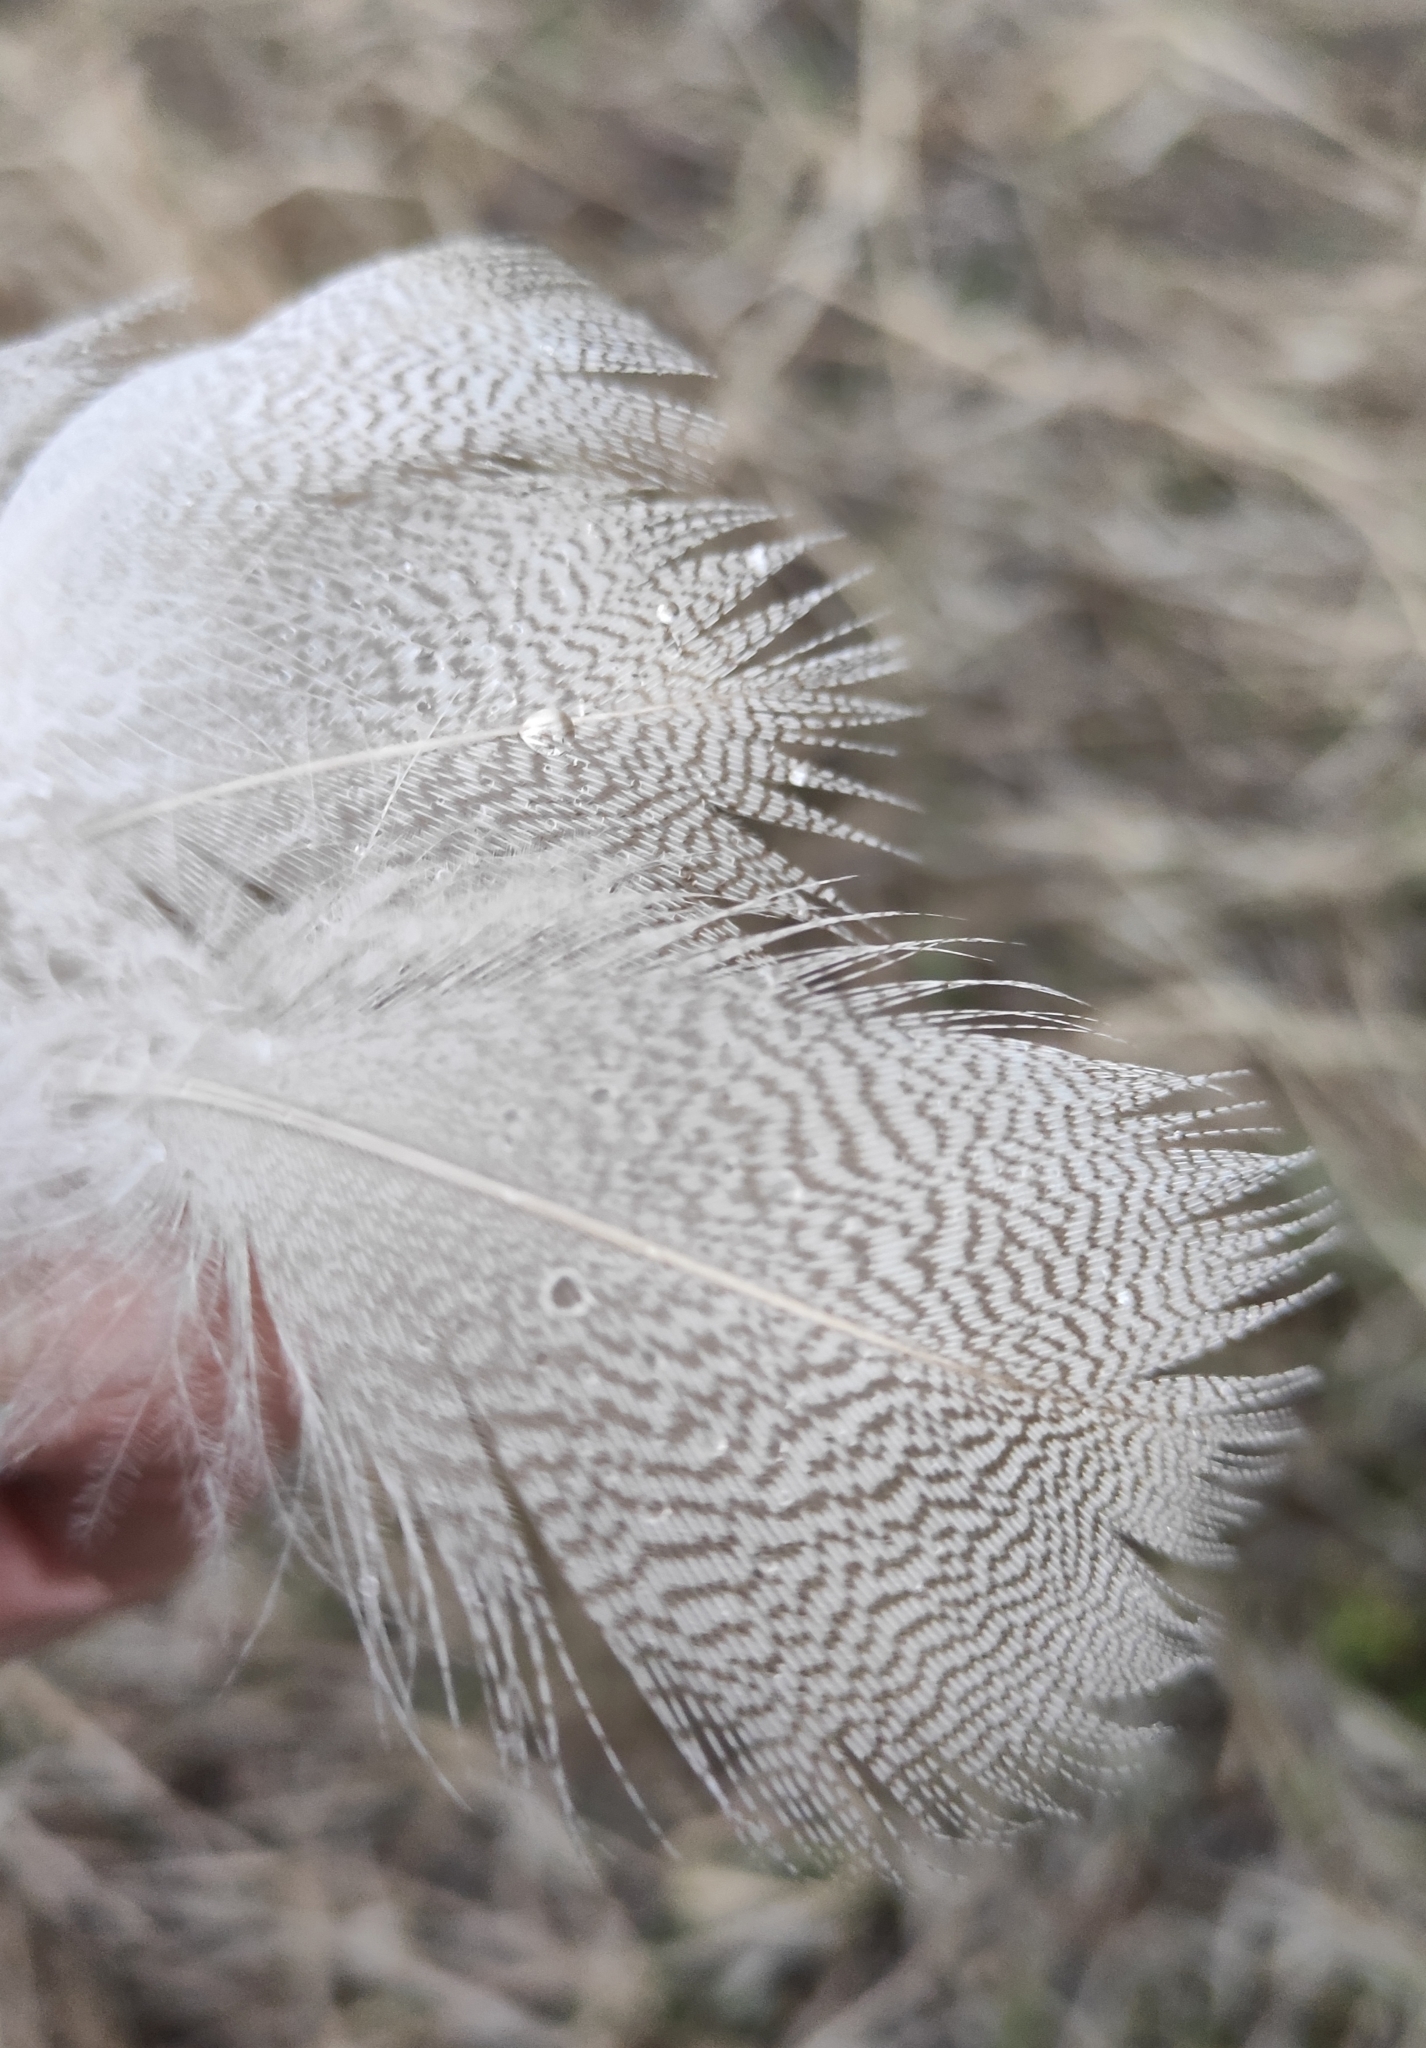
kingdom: Animalia
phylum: Chordata
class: Aves
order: Anseriformes
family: Anatidae
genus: Anas
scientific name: Anas platyrhynchos
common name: Mallard
